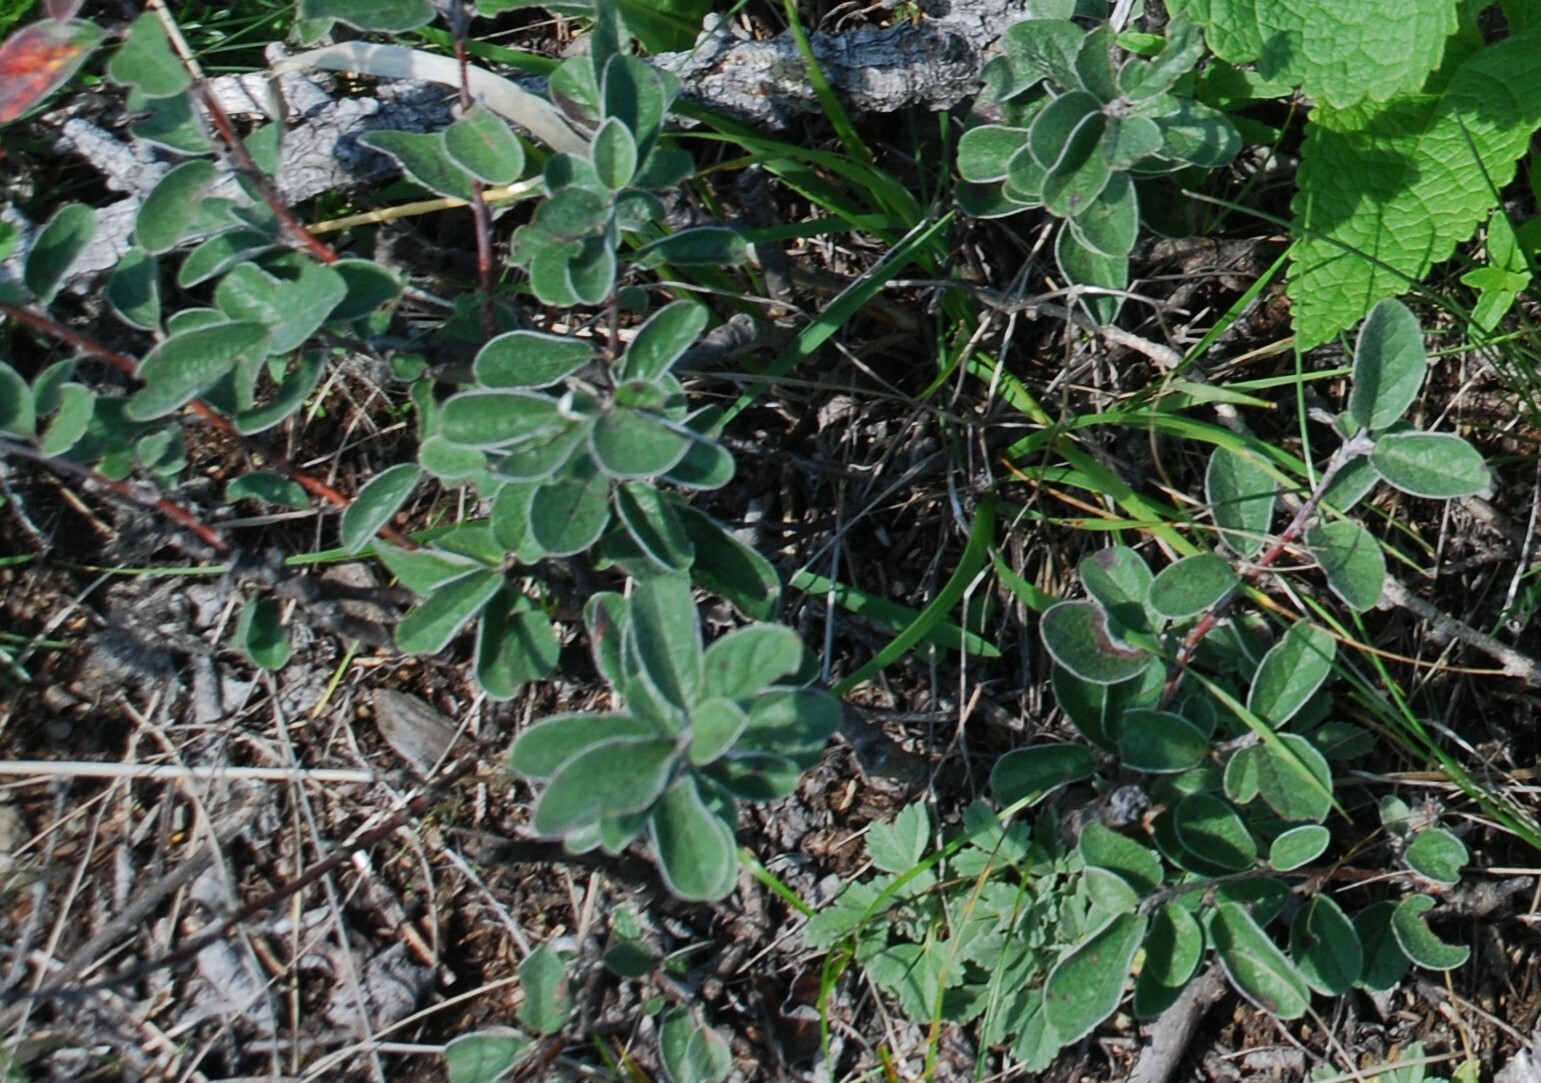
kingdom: Plantae
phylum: Tracheophyta
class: Magnoliopsida
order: Rosales
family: Rosaceae
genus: Cotoneaster
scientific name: Cotoneaster melanocarpus
